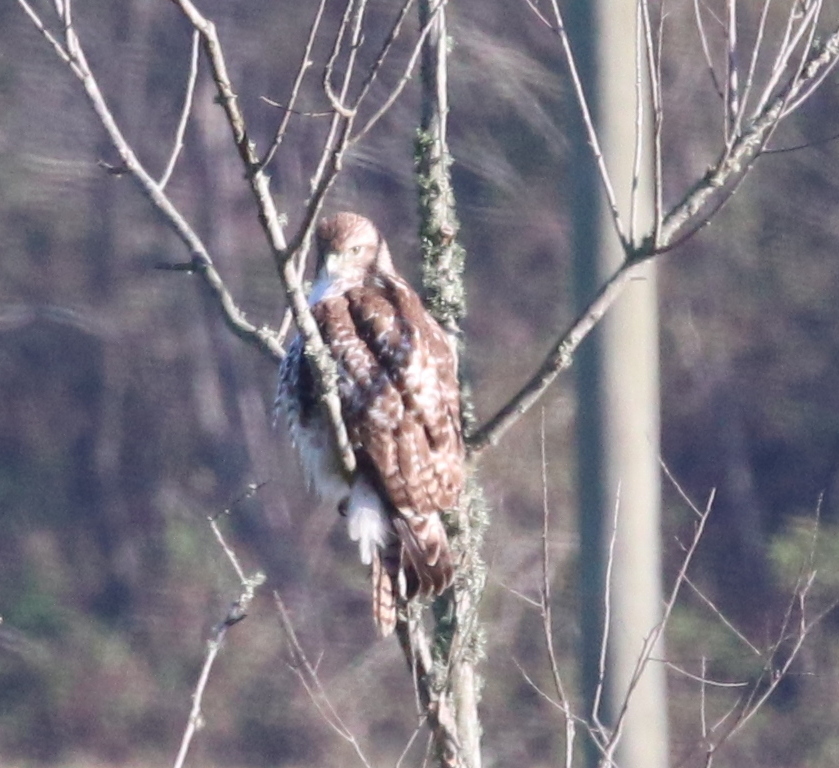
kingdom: Animalia
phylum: Chordata
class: Aves
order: Accipitriformes
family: Accipitridae
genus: Buteo
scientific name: Buteo jamaicensis
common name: Red-tailed hawk
